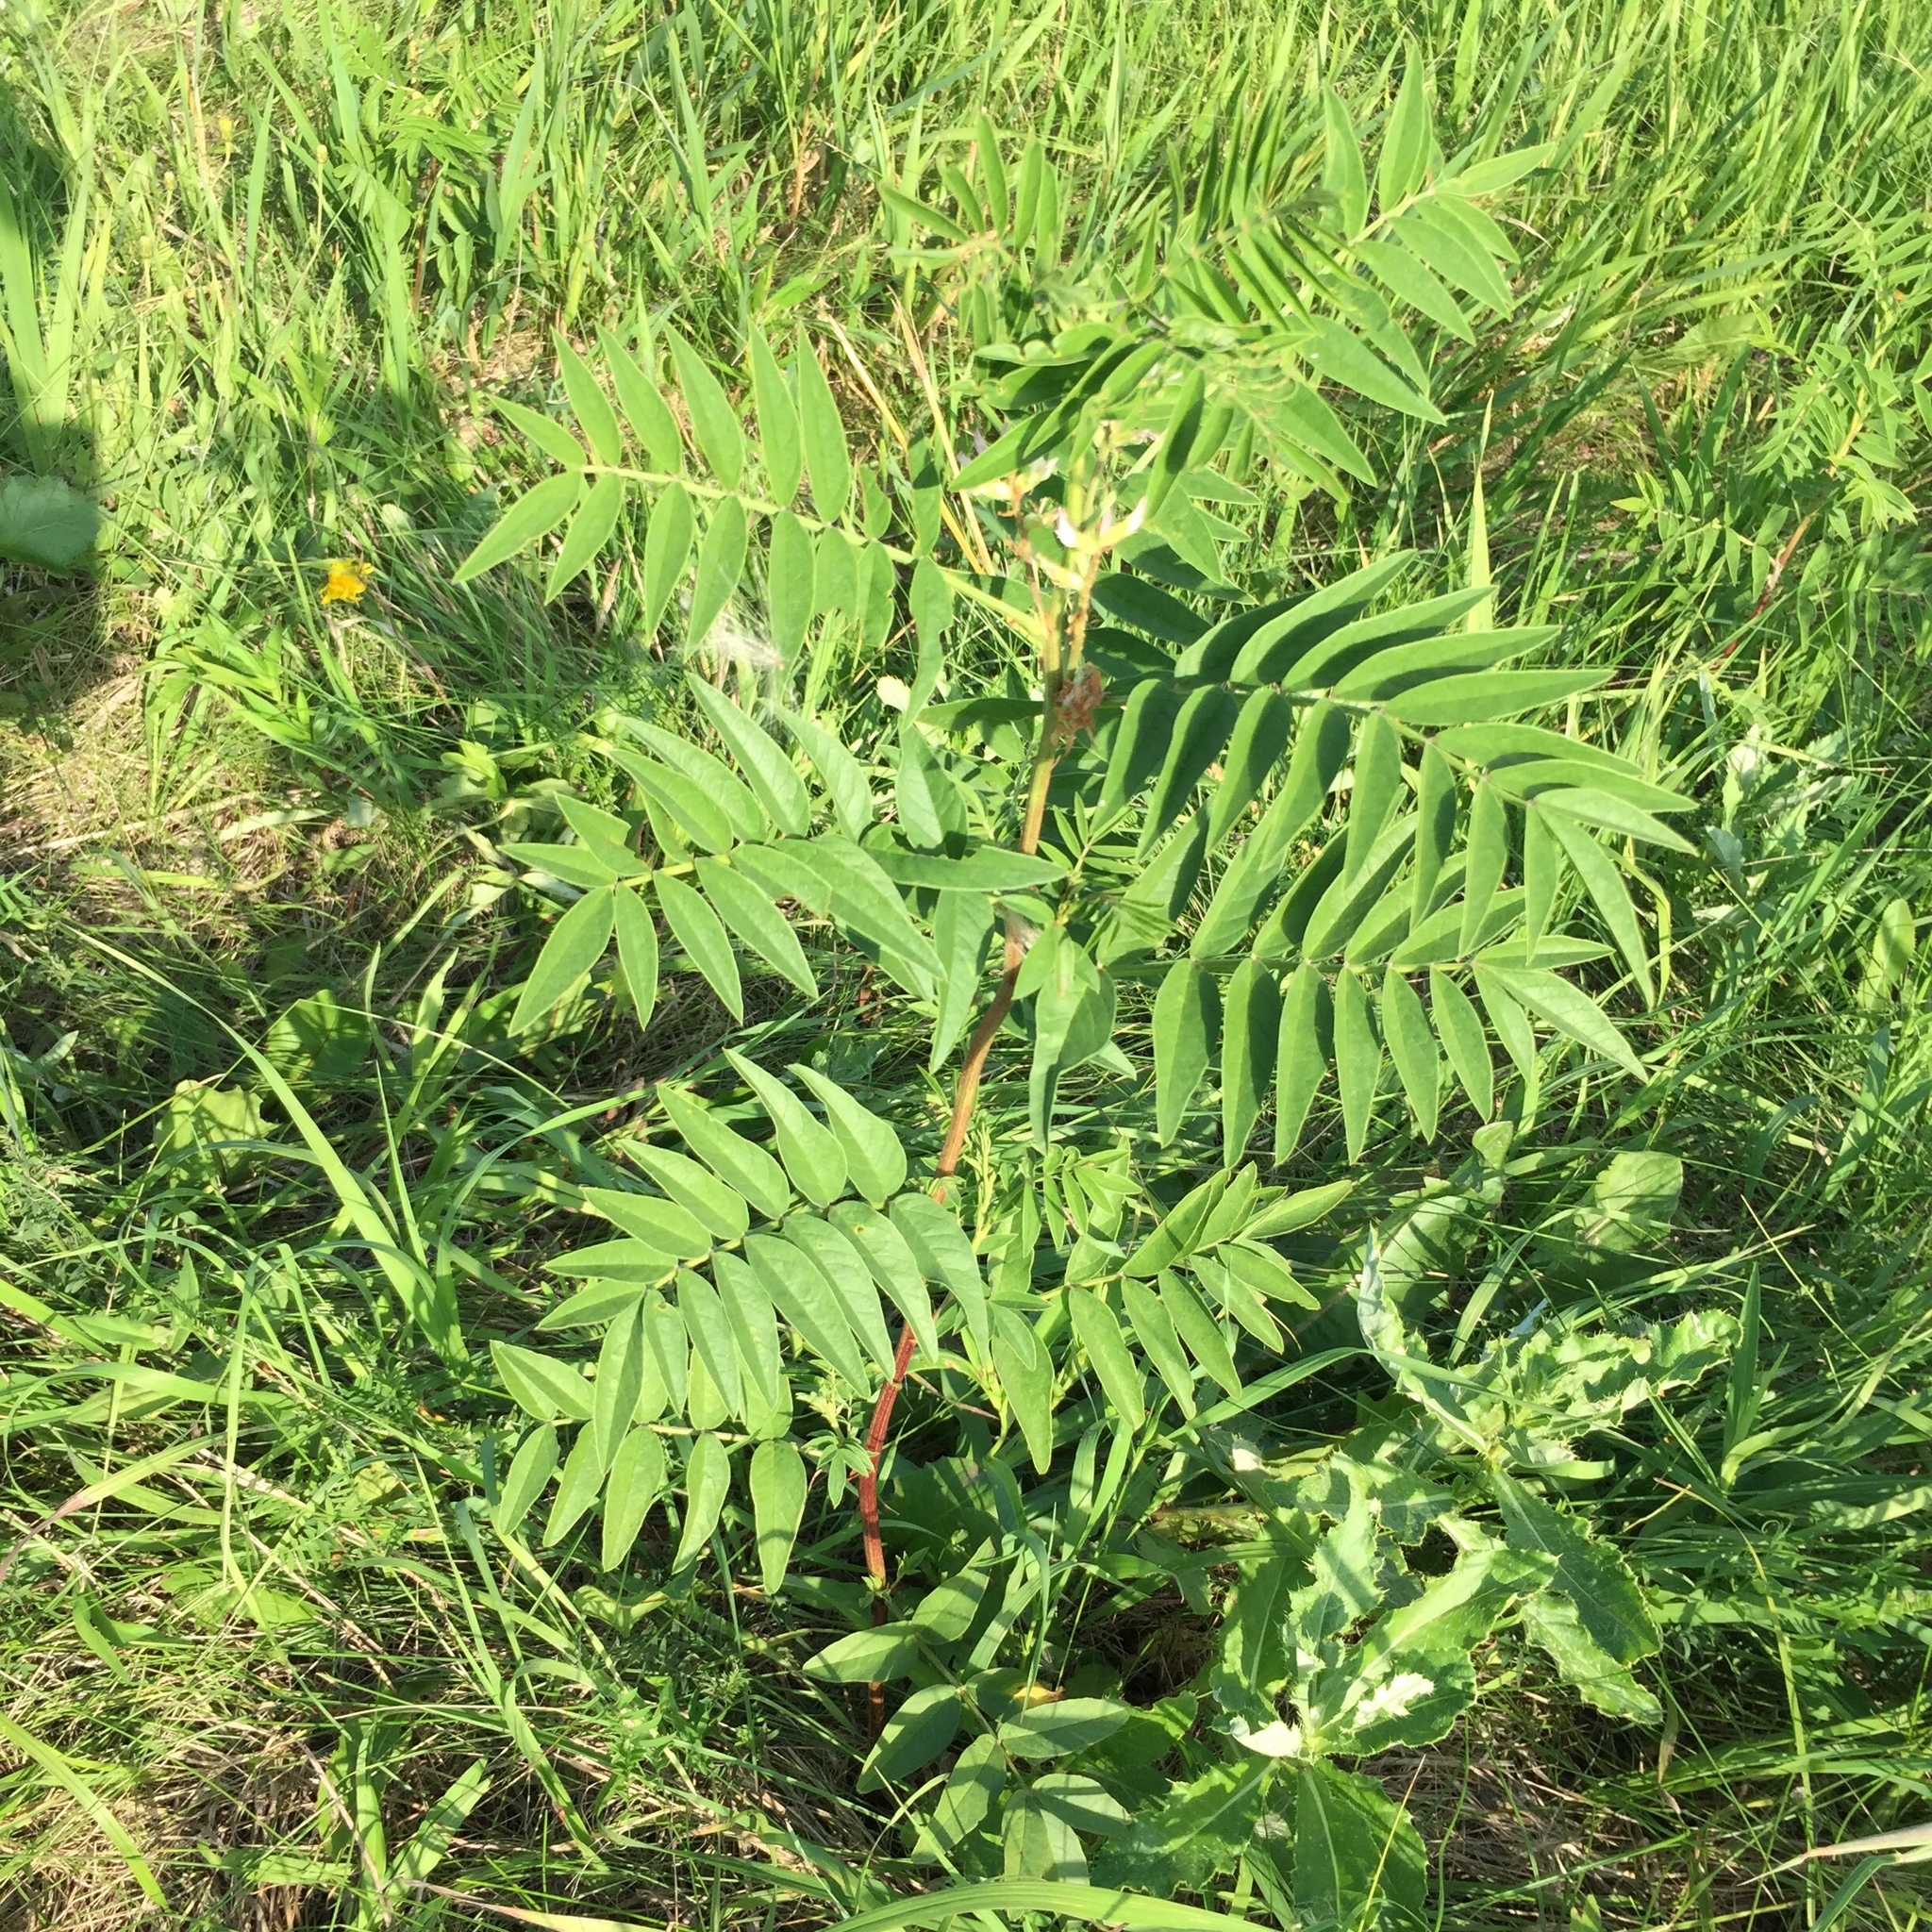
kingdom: Plantae
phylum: Tracheophyta
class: Magnoliopsida
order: Fabales
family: Fabaceae
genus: Glycyrrhiza
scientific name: Glycyrrhiza lepidota
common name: American liquorice
